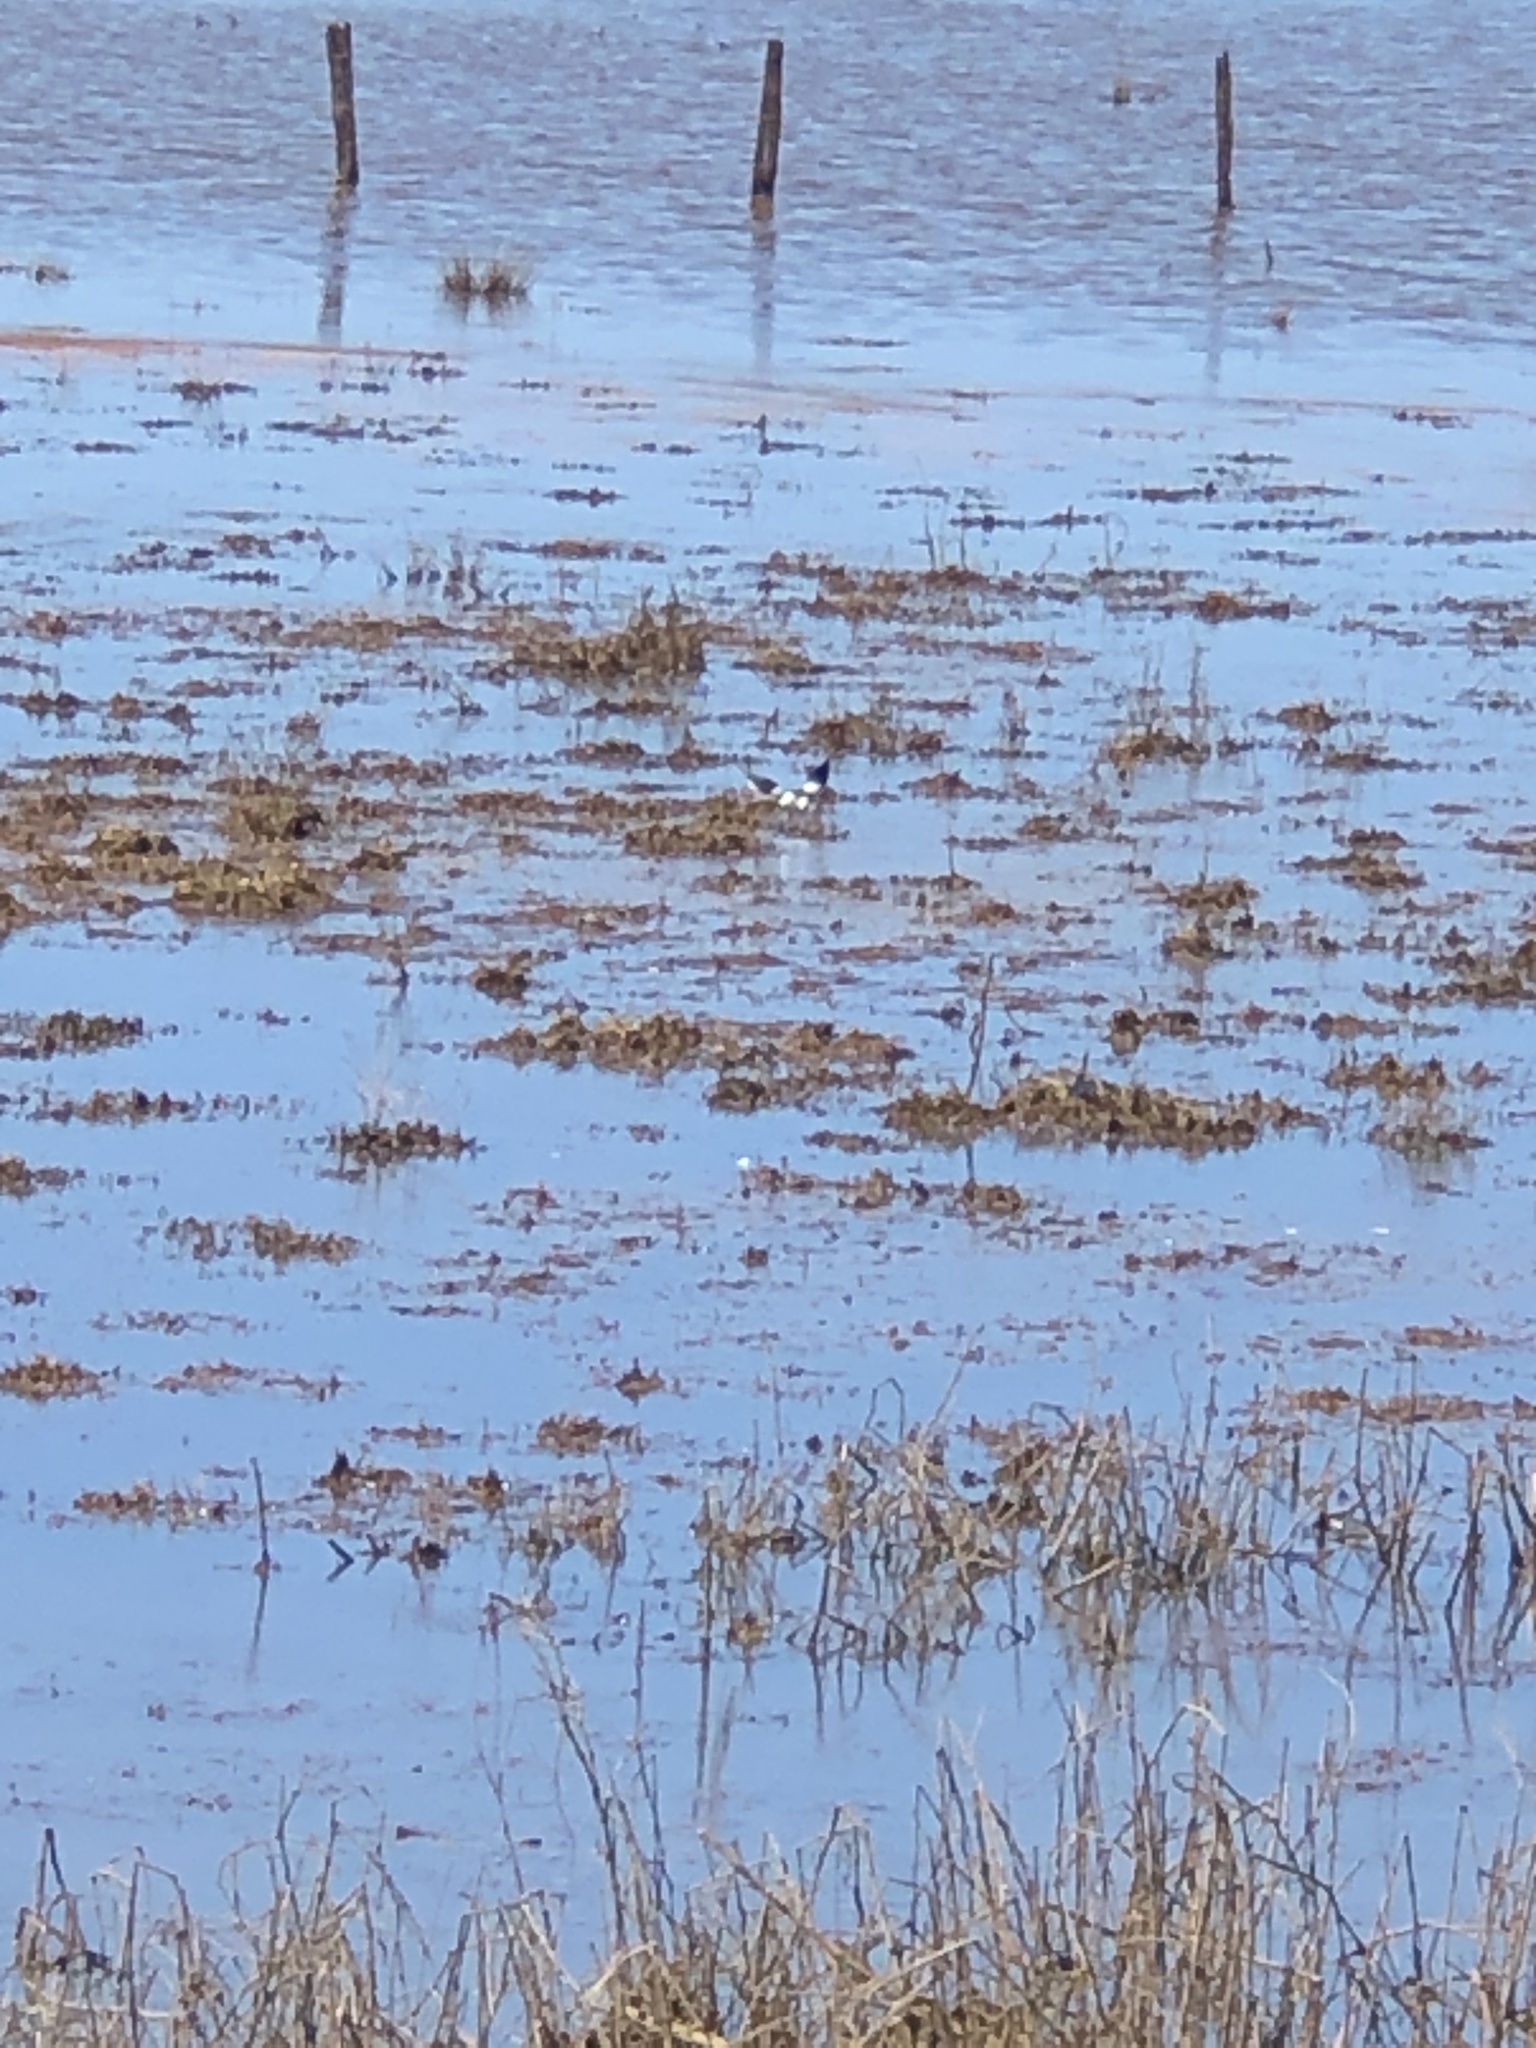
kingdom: Animalia
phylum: Chordata
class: Aves
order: Charadriiformes
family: Recurvirostridae
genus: Himantopus
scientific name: Himantopus leucocephalus
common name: White-headed stilt
